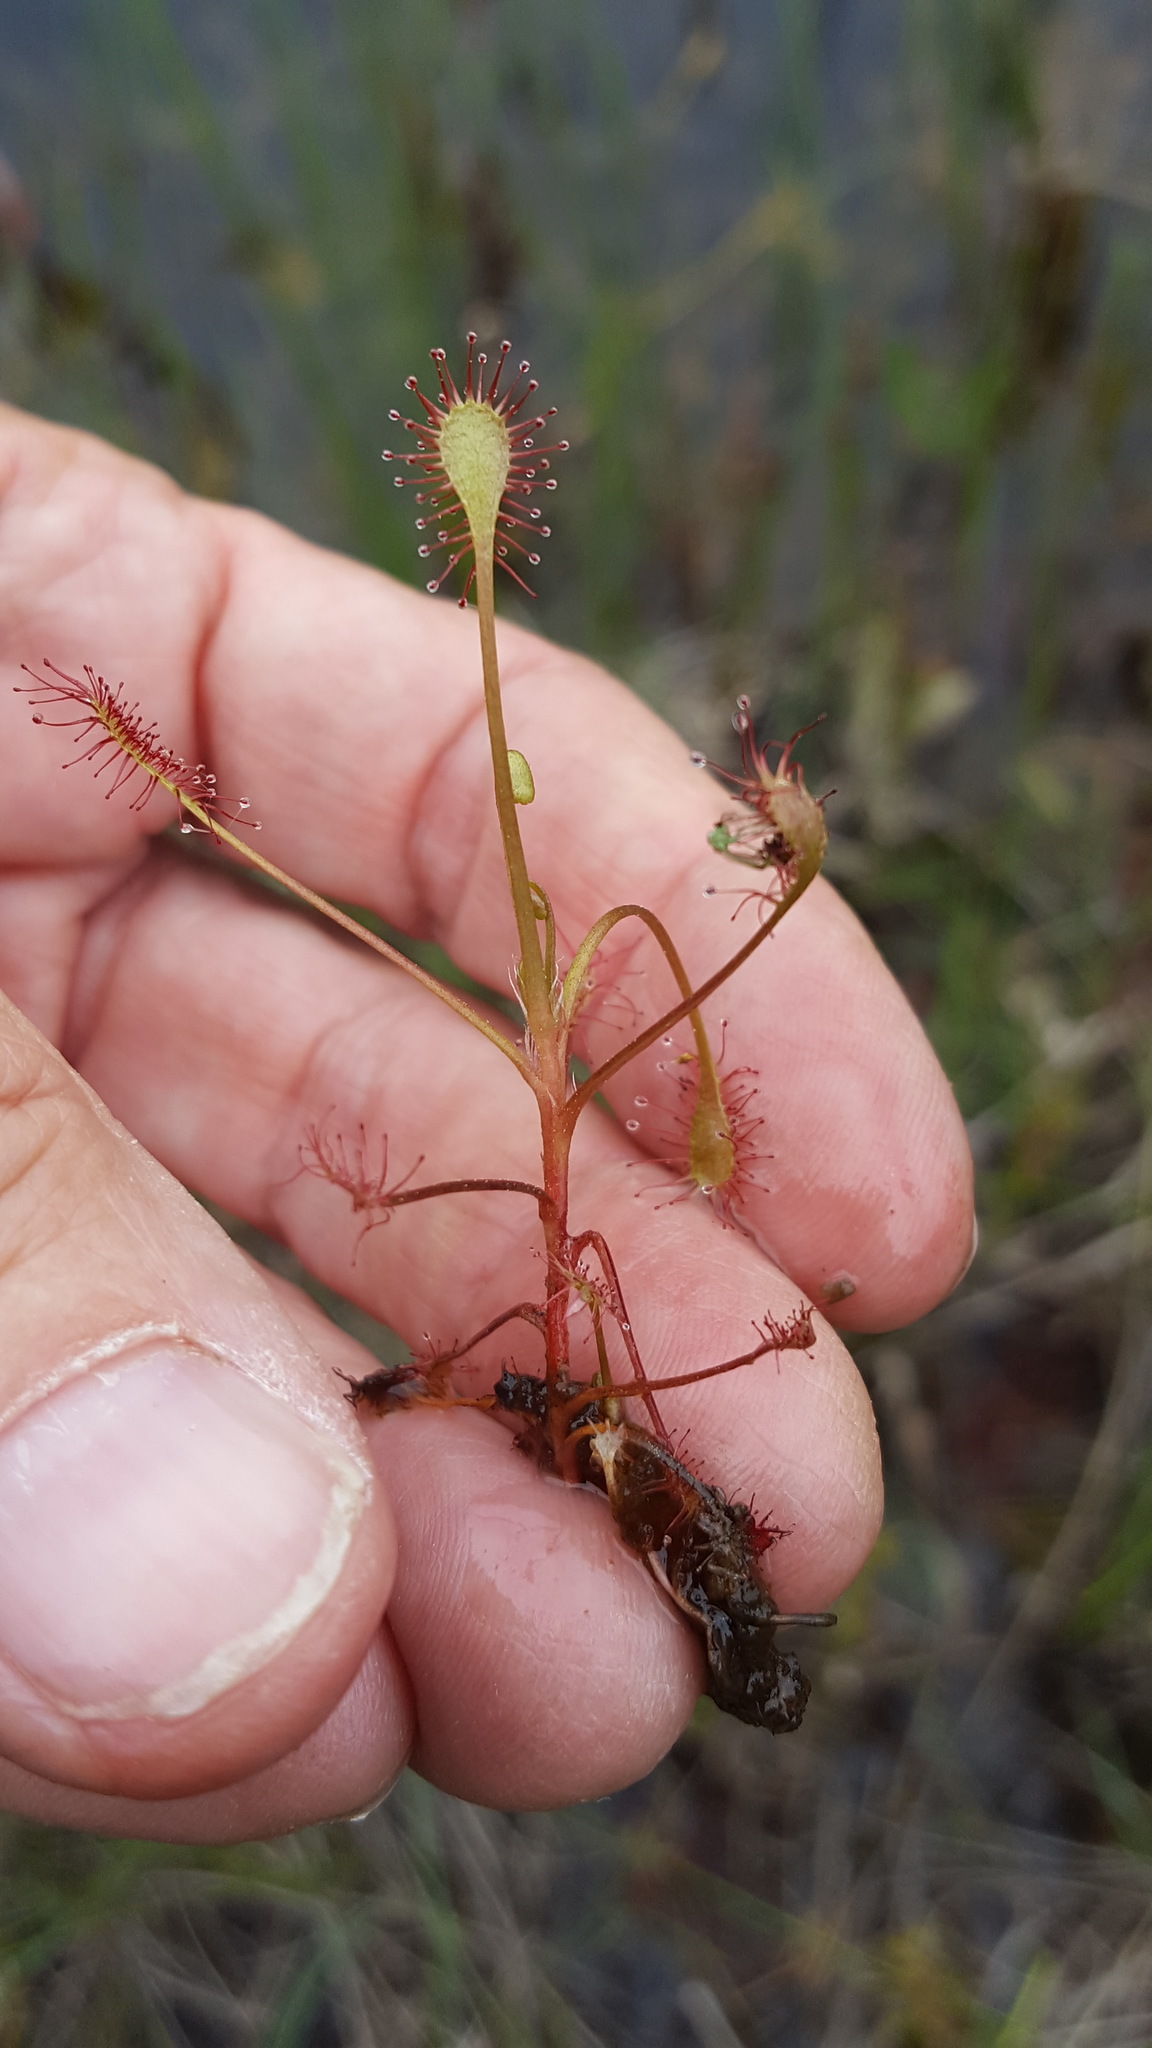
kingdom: Plantae
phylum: Tracheophyta
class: Magnoliopsida
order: Caryophyllales
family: Droseraceae
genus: Drosera
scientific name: Drosera intermedia
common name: Oblong-leaved sundew
